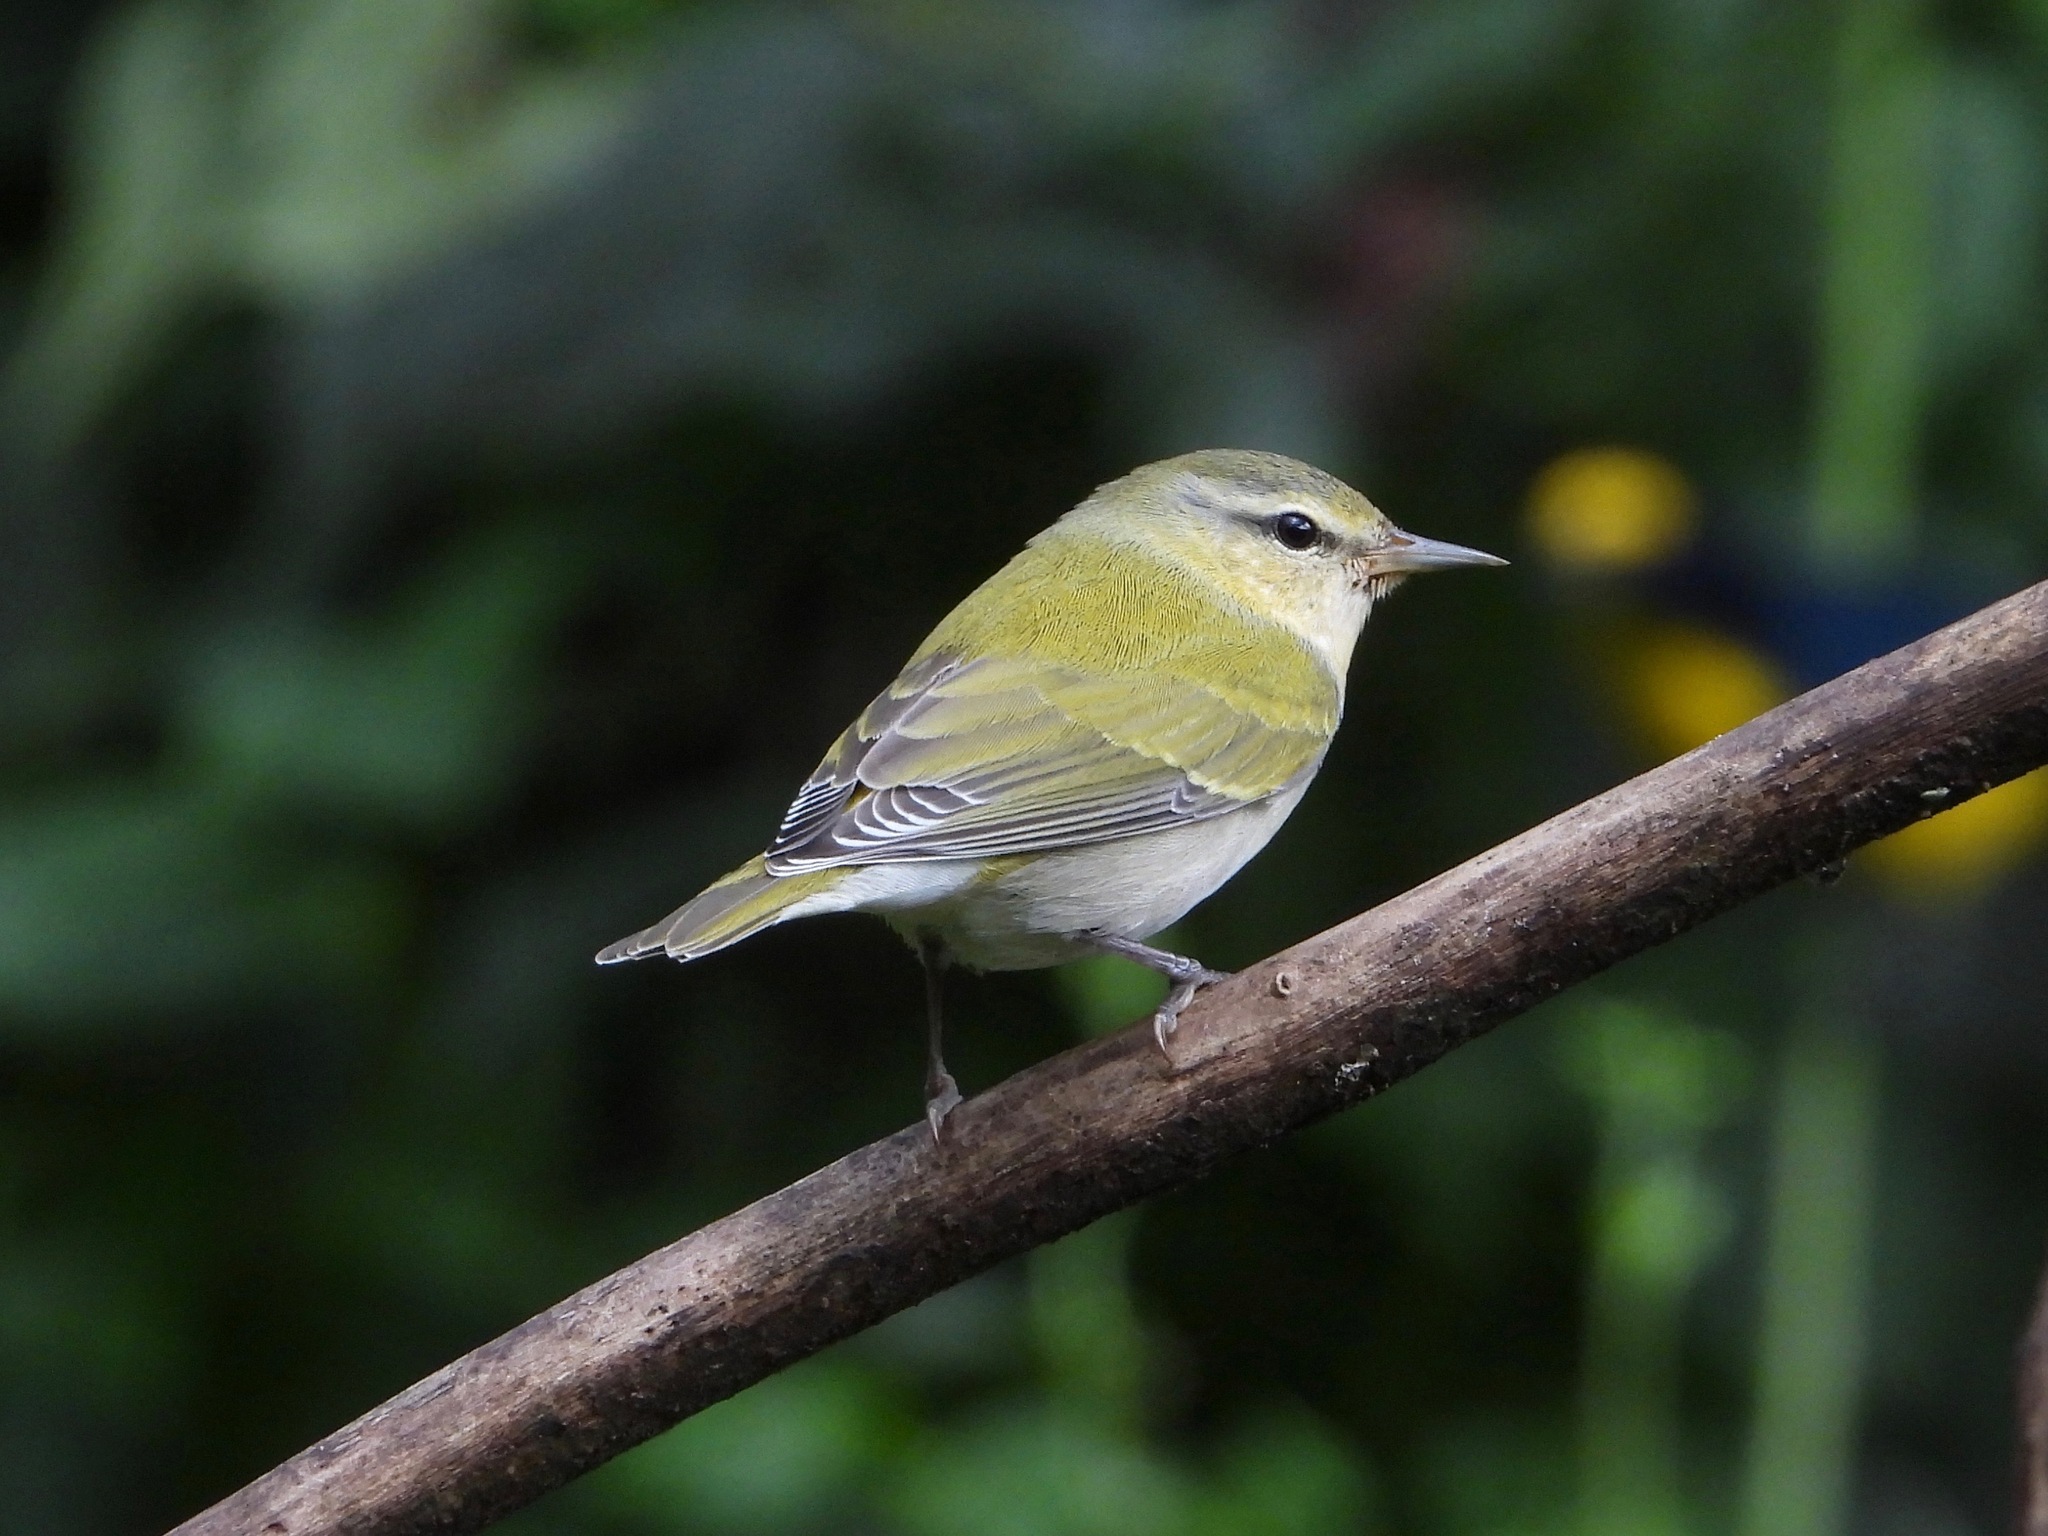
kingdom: Animalia
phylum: Chordata
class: Aves
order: Passeriformes
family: Parulidae
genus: Leiothlypis
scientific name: Leiothlypis peregrina
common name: Tennessee warbler
